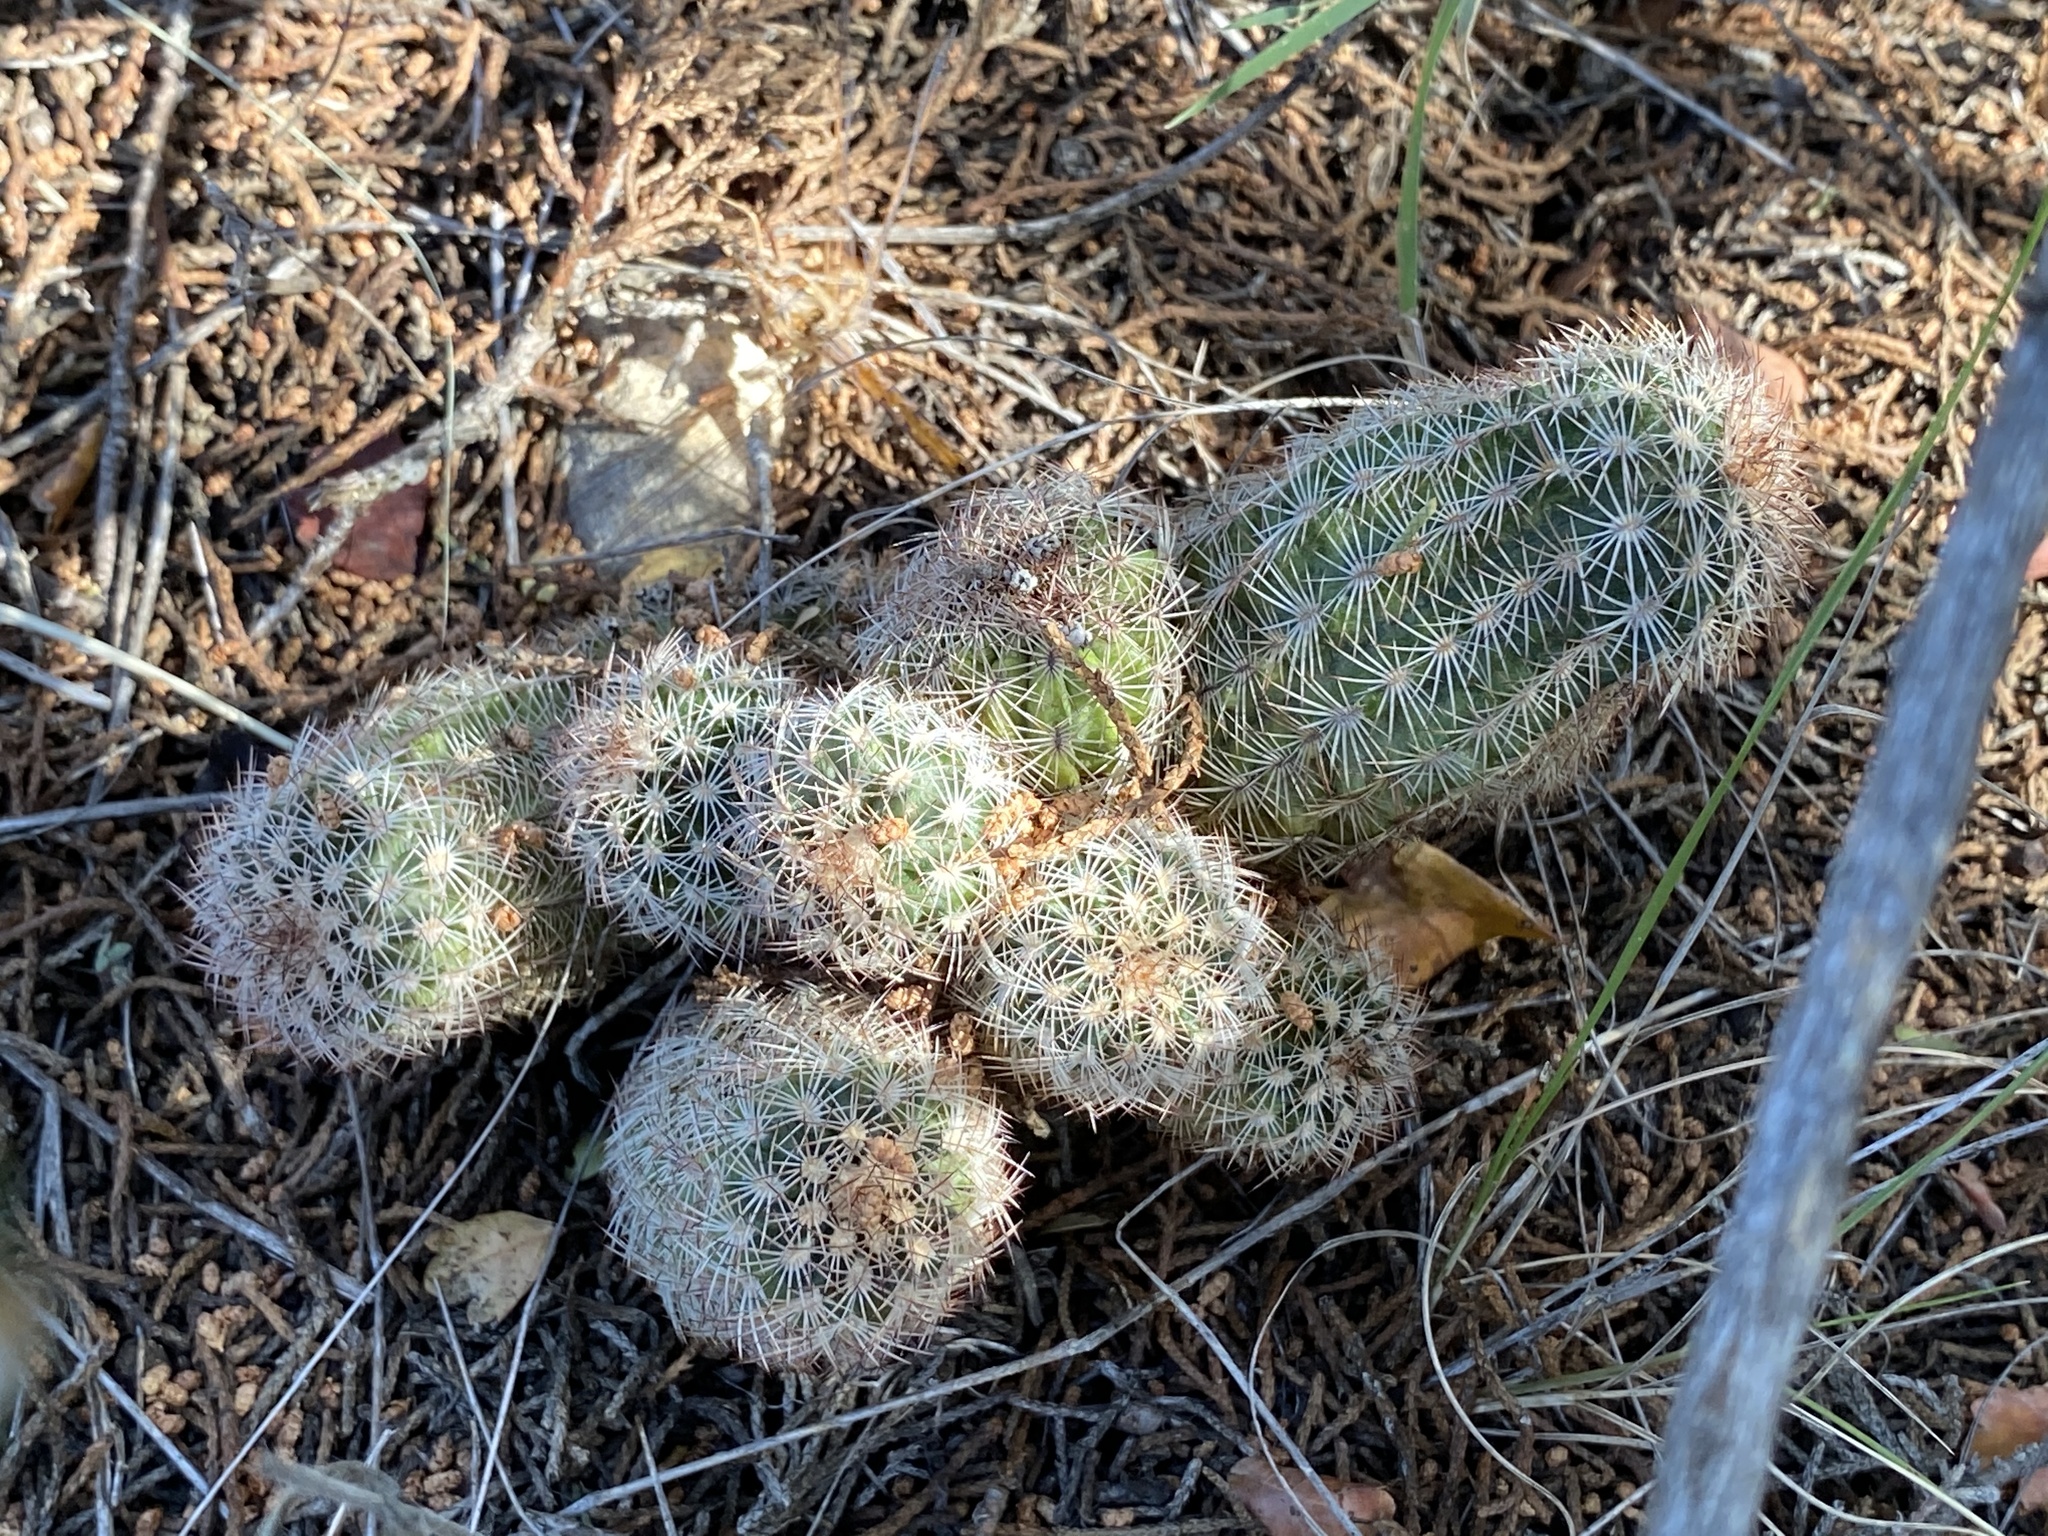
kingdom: Plantae
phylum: Tracheophyta
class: Magnoliopsida
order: Caryophyllales
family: Cactaceae
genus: Echinocereus
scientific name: Echinocereus reichenbachii
